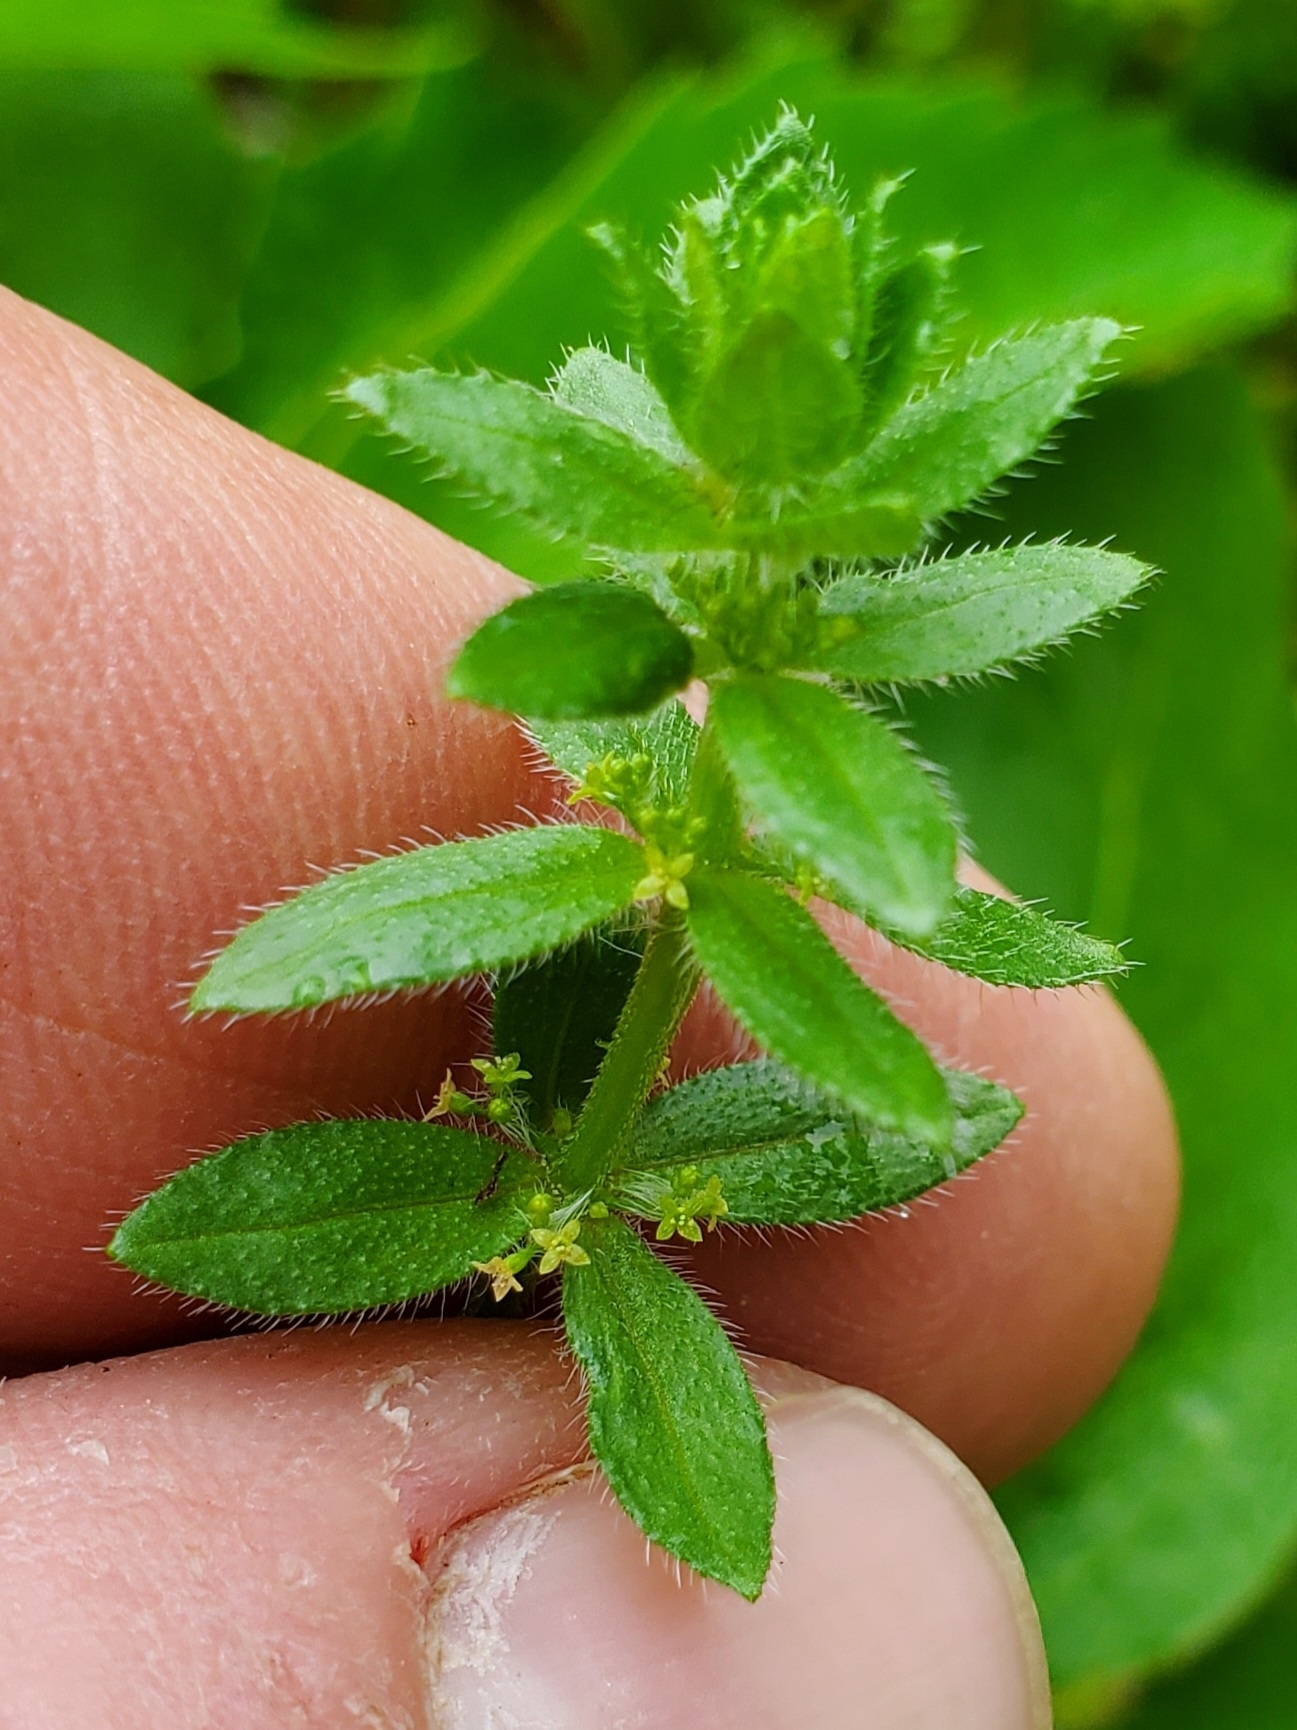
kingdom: Plantae
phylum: Tracheophyta
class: Magnoliopsida
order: Gentianales
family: Rubiaceae
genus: Cruciata
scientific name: Cruciata pedemontana
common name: Piedmont bedstraw
